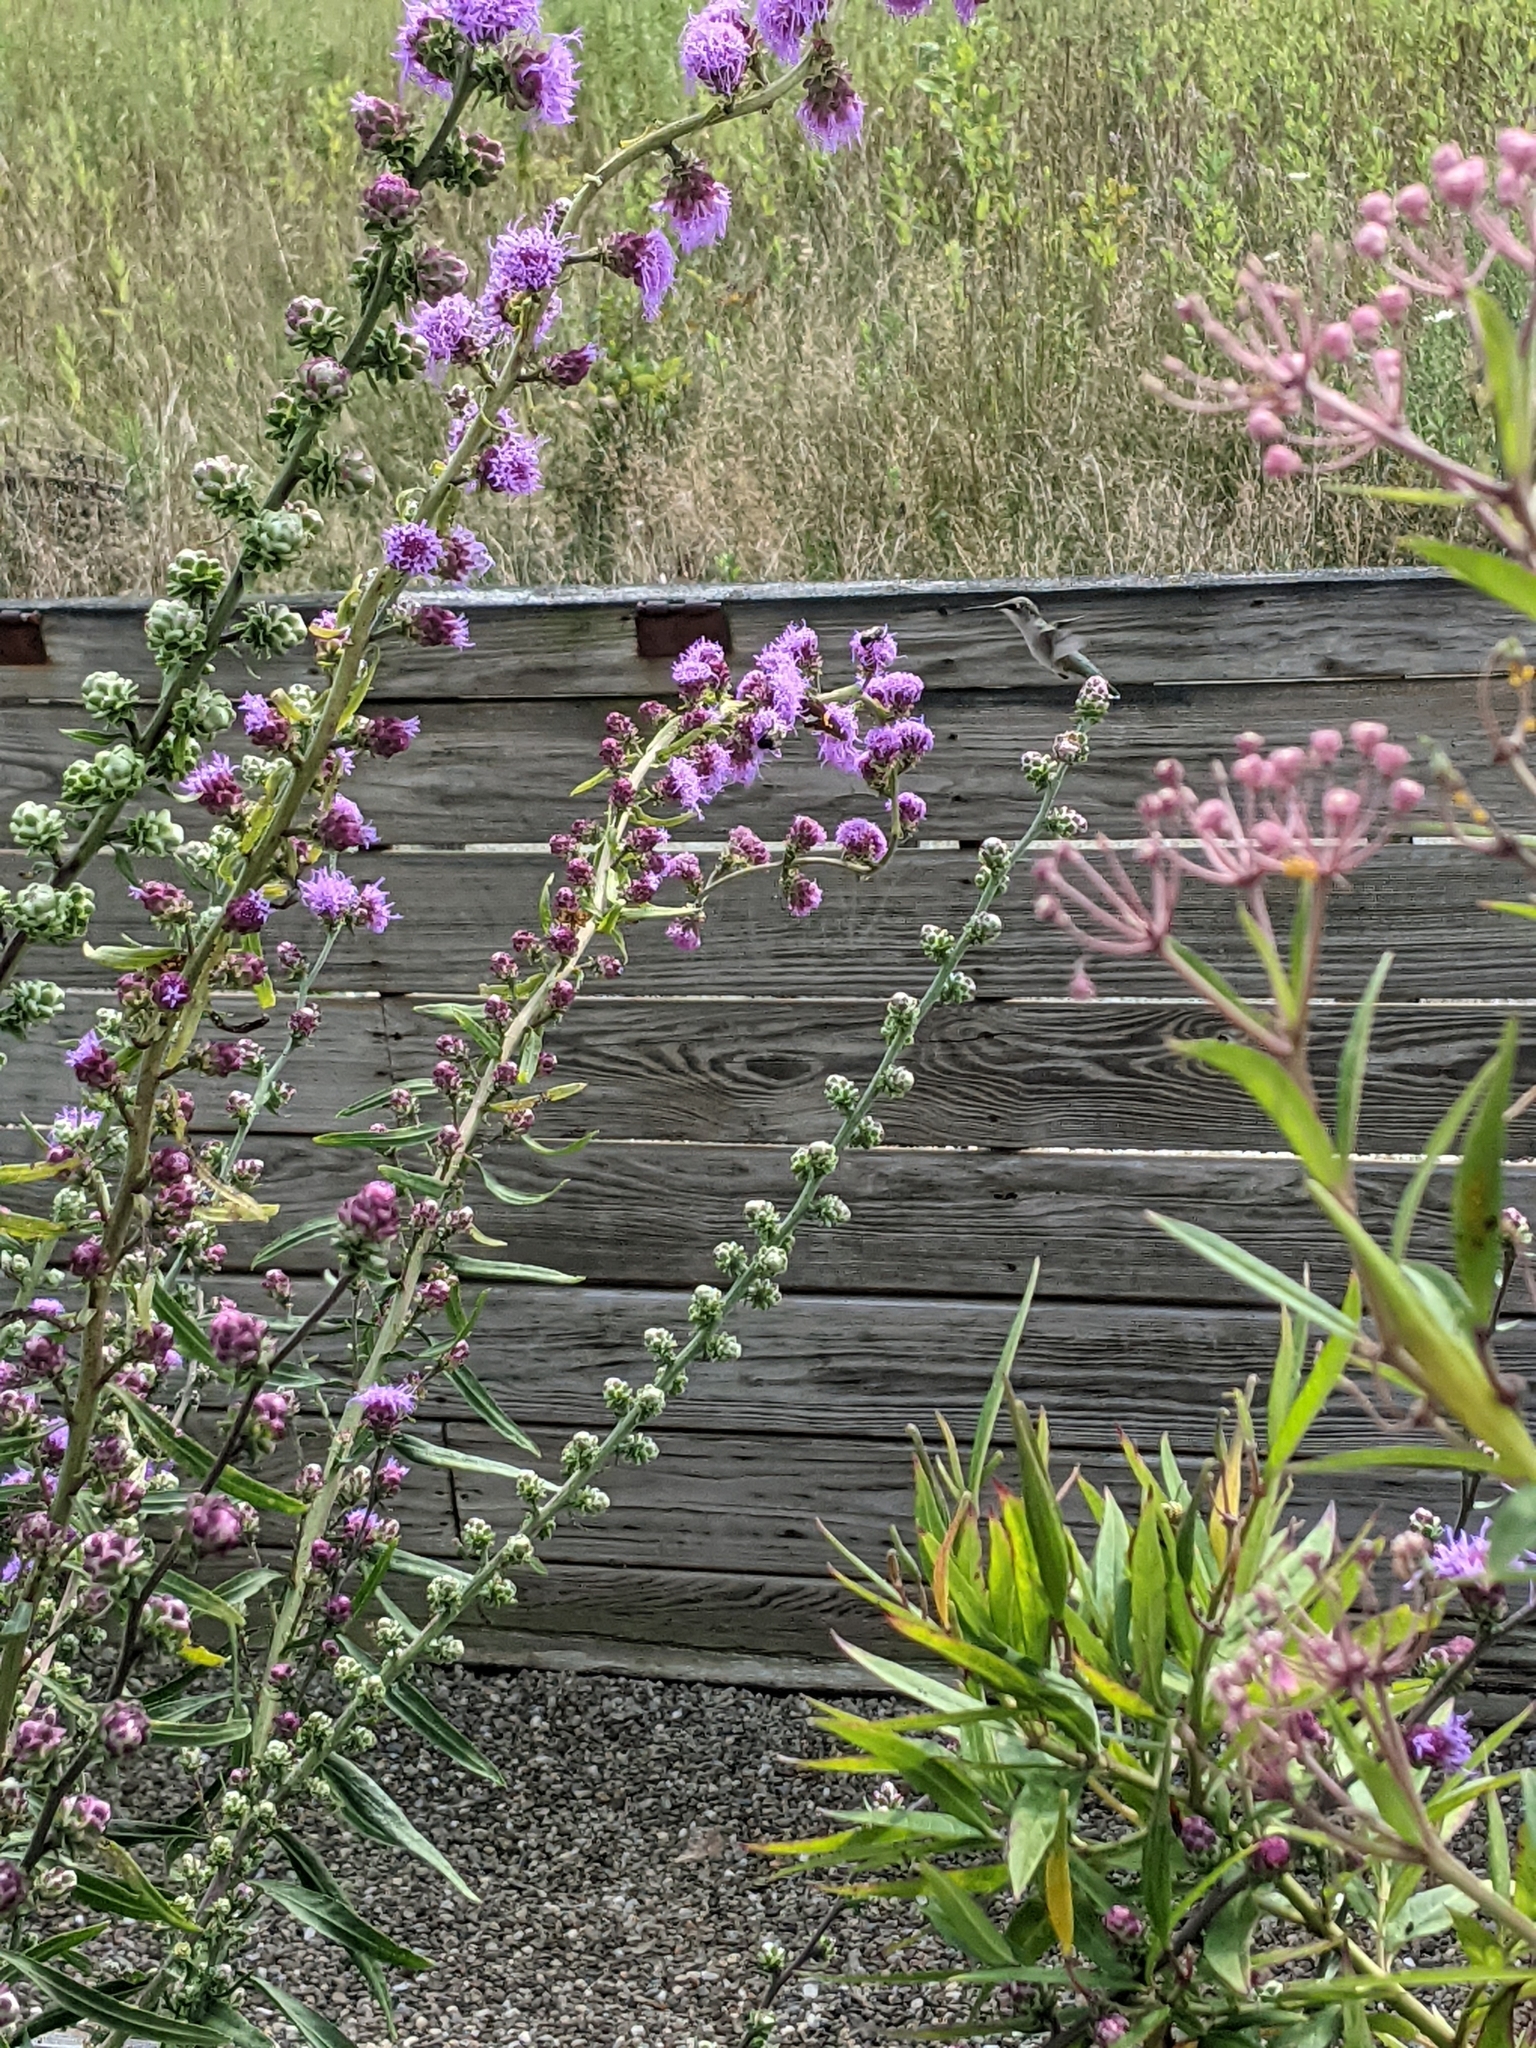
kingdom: Animalia
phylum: Chordata
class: Aves
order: Apodiformes
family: Trochilidae
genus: Archilochus
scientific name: Archilochus colubris
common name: Ruby-throated hummingbird
